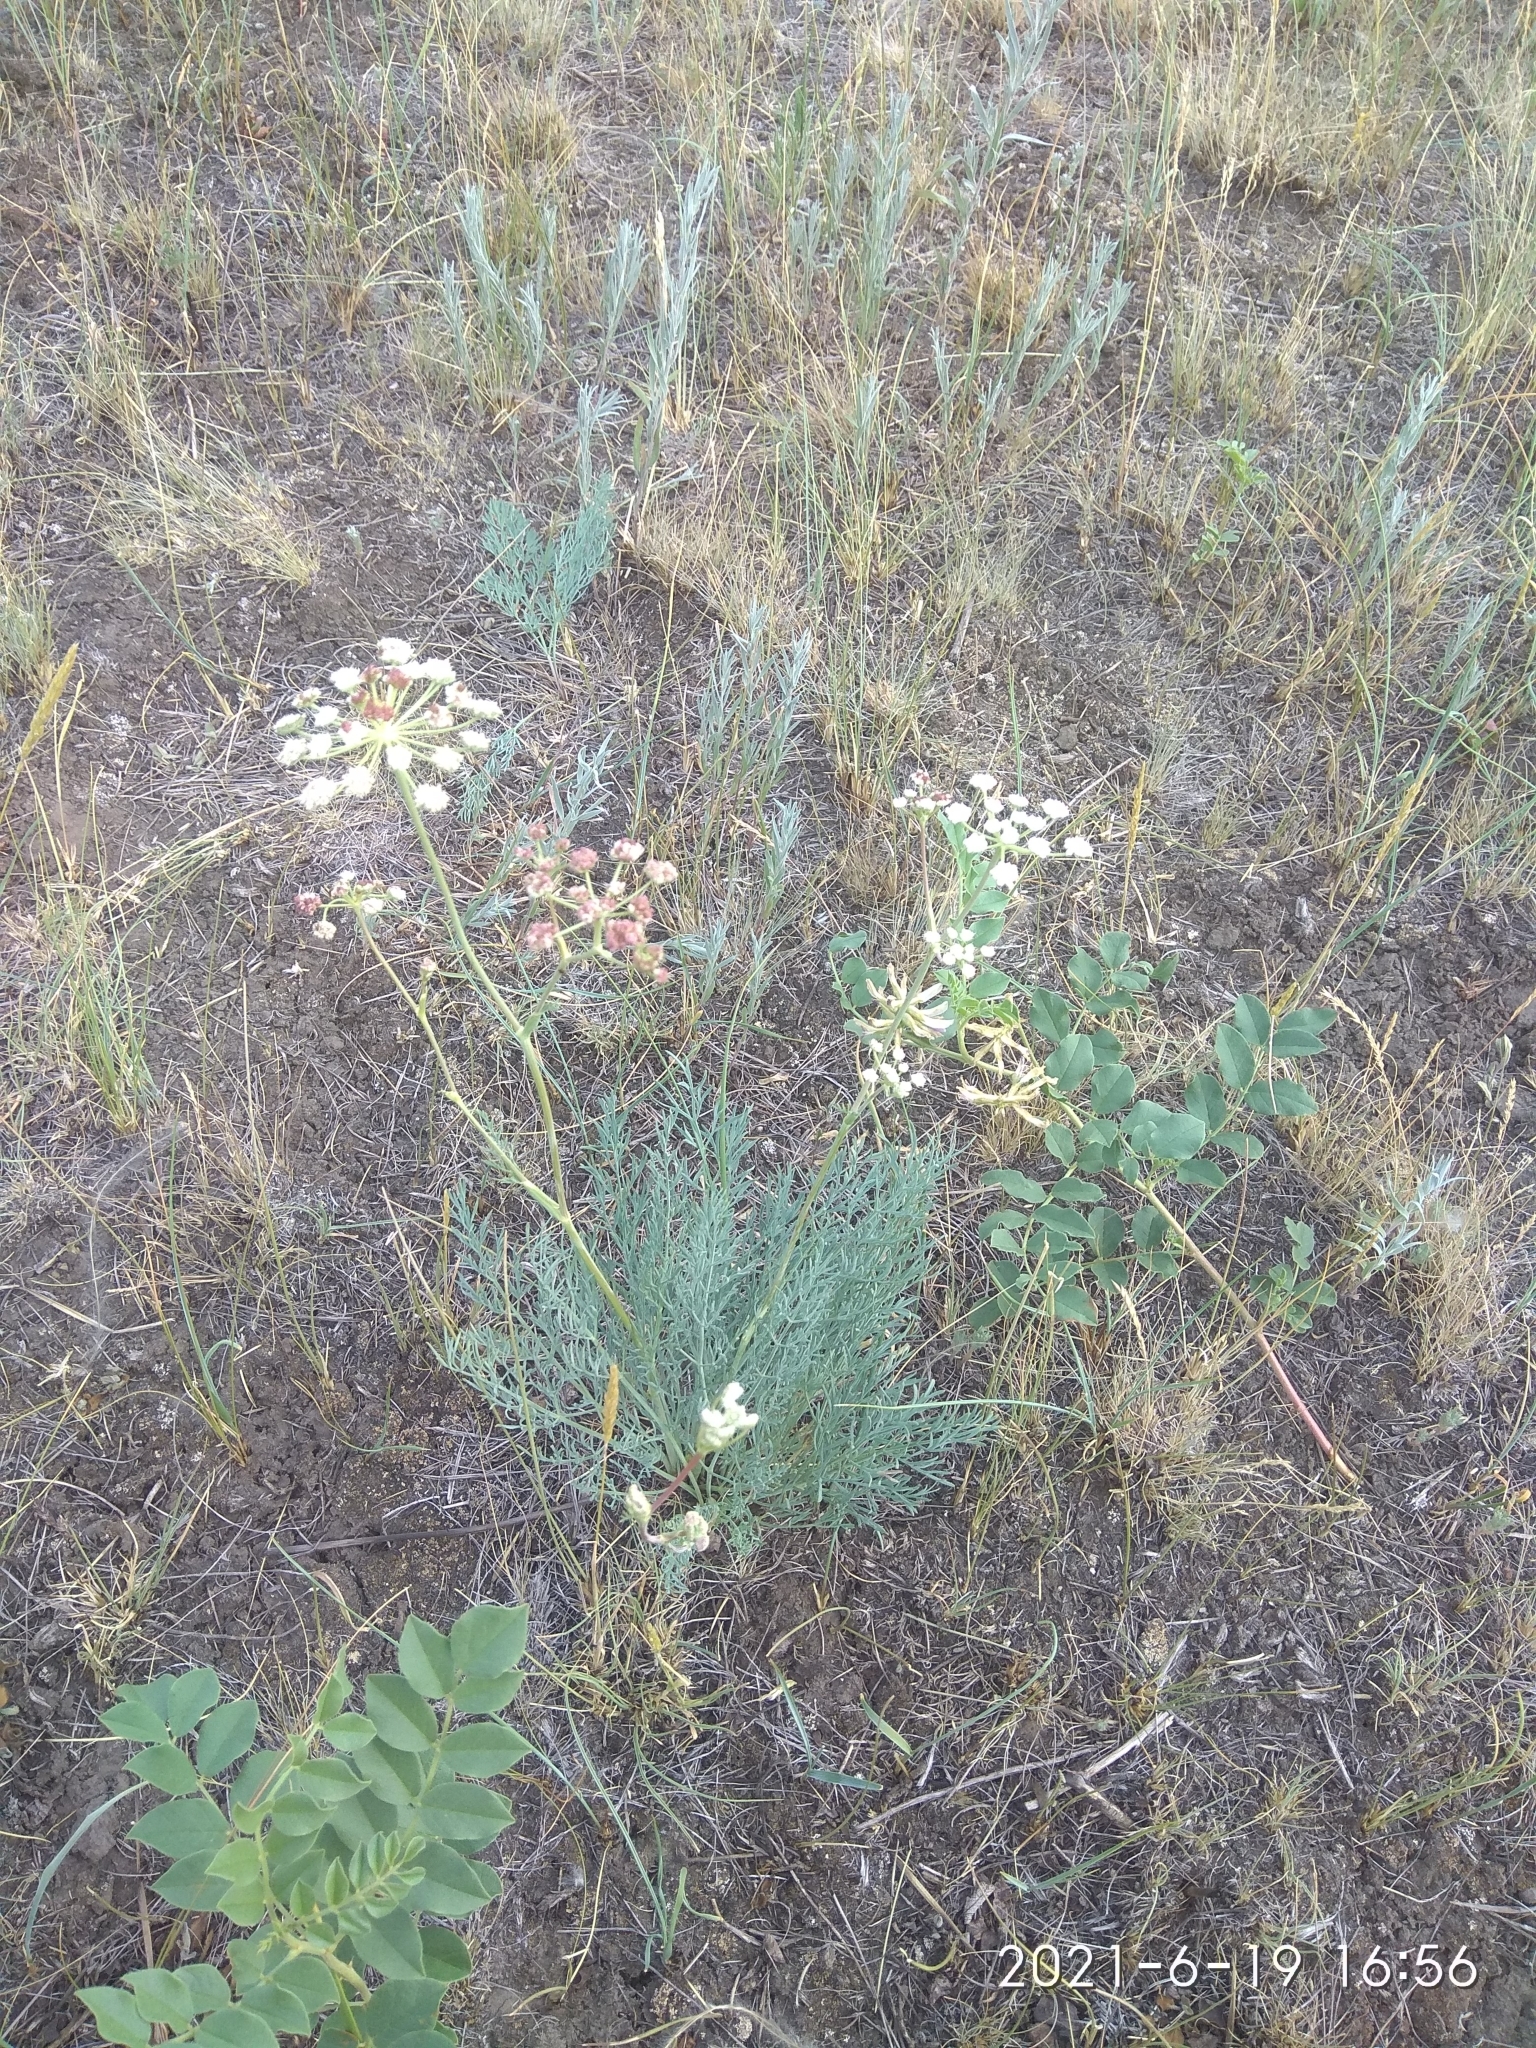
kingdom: Plantae
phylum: Tracheophyta
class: Magnoliopsida
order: Apiales
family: Apiaceae
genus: Seseli
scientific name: Seseli ledebourii
